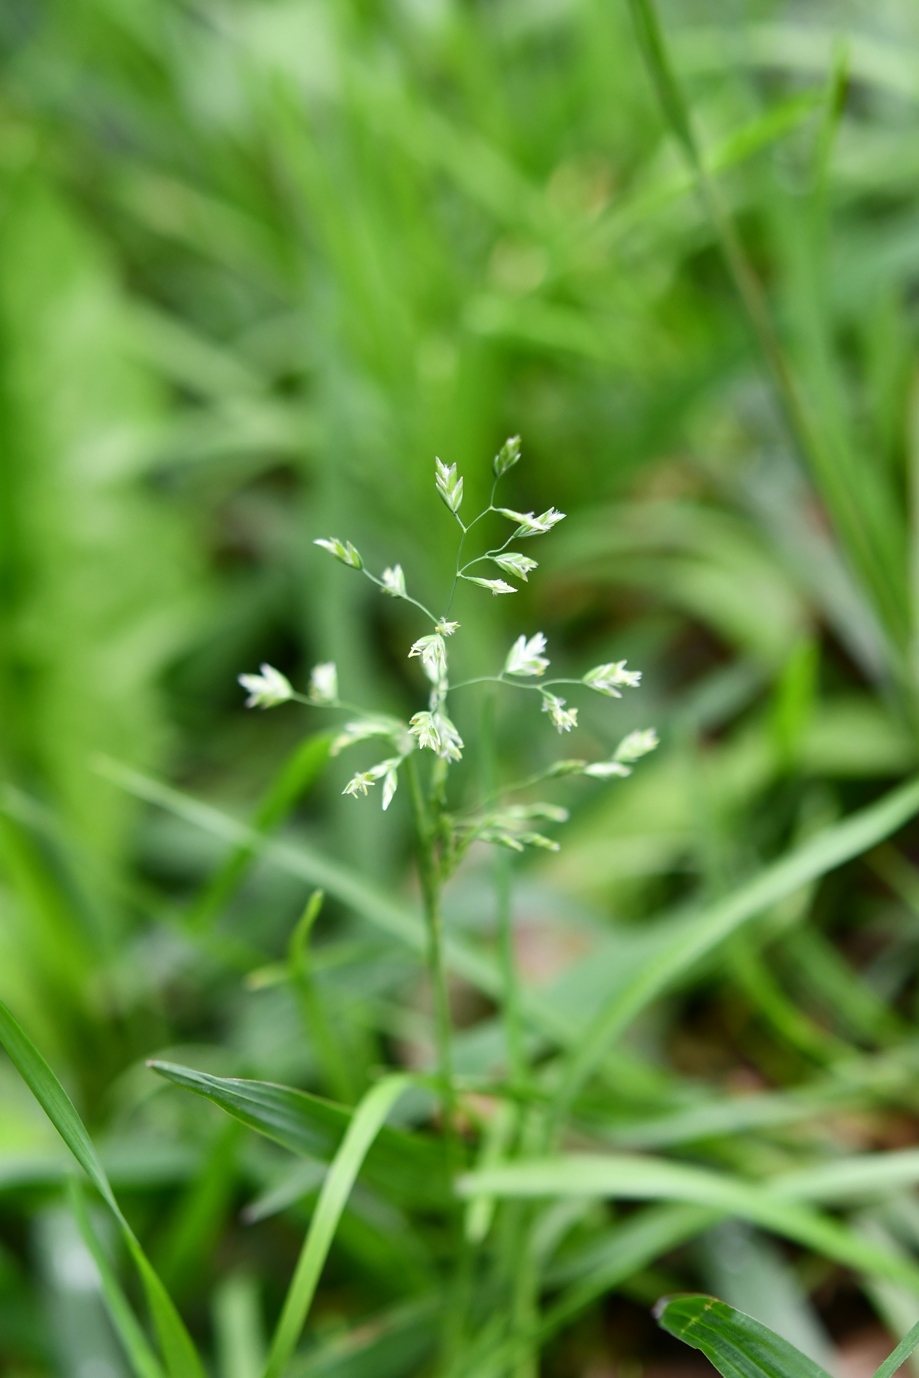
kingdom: Plantae
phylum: Tracheophyta
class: Liliopsida
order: Poales
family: Poaceae
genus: Poa
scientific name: Poa annua
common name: Annual bluegrass
